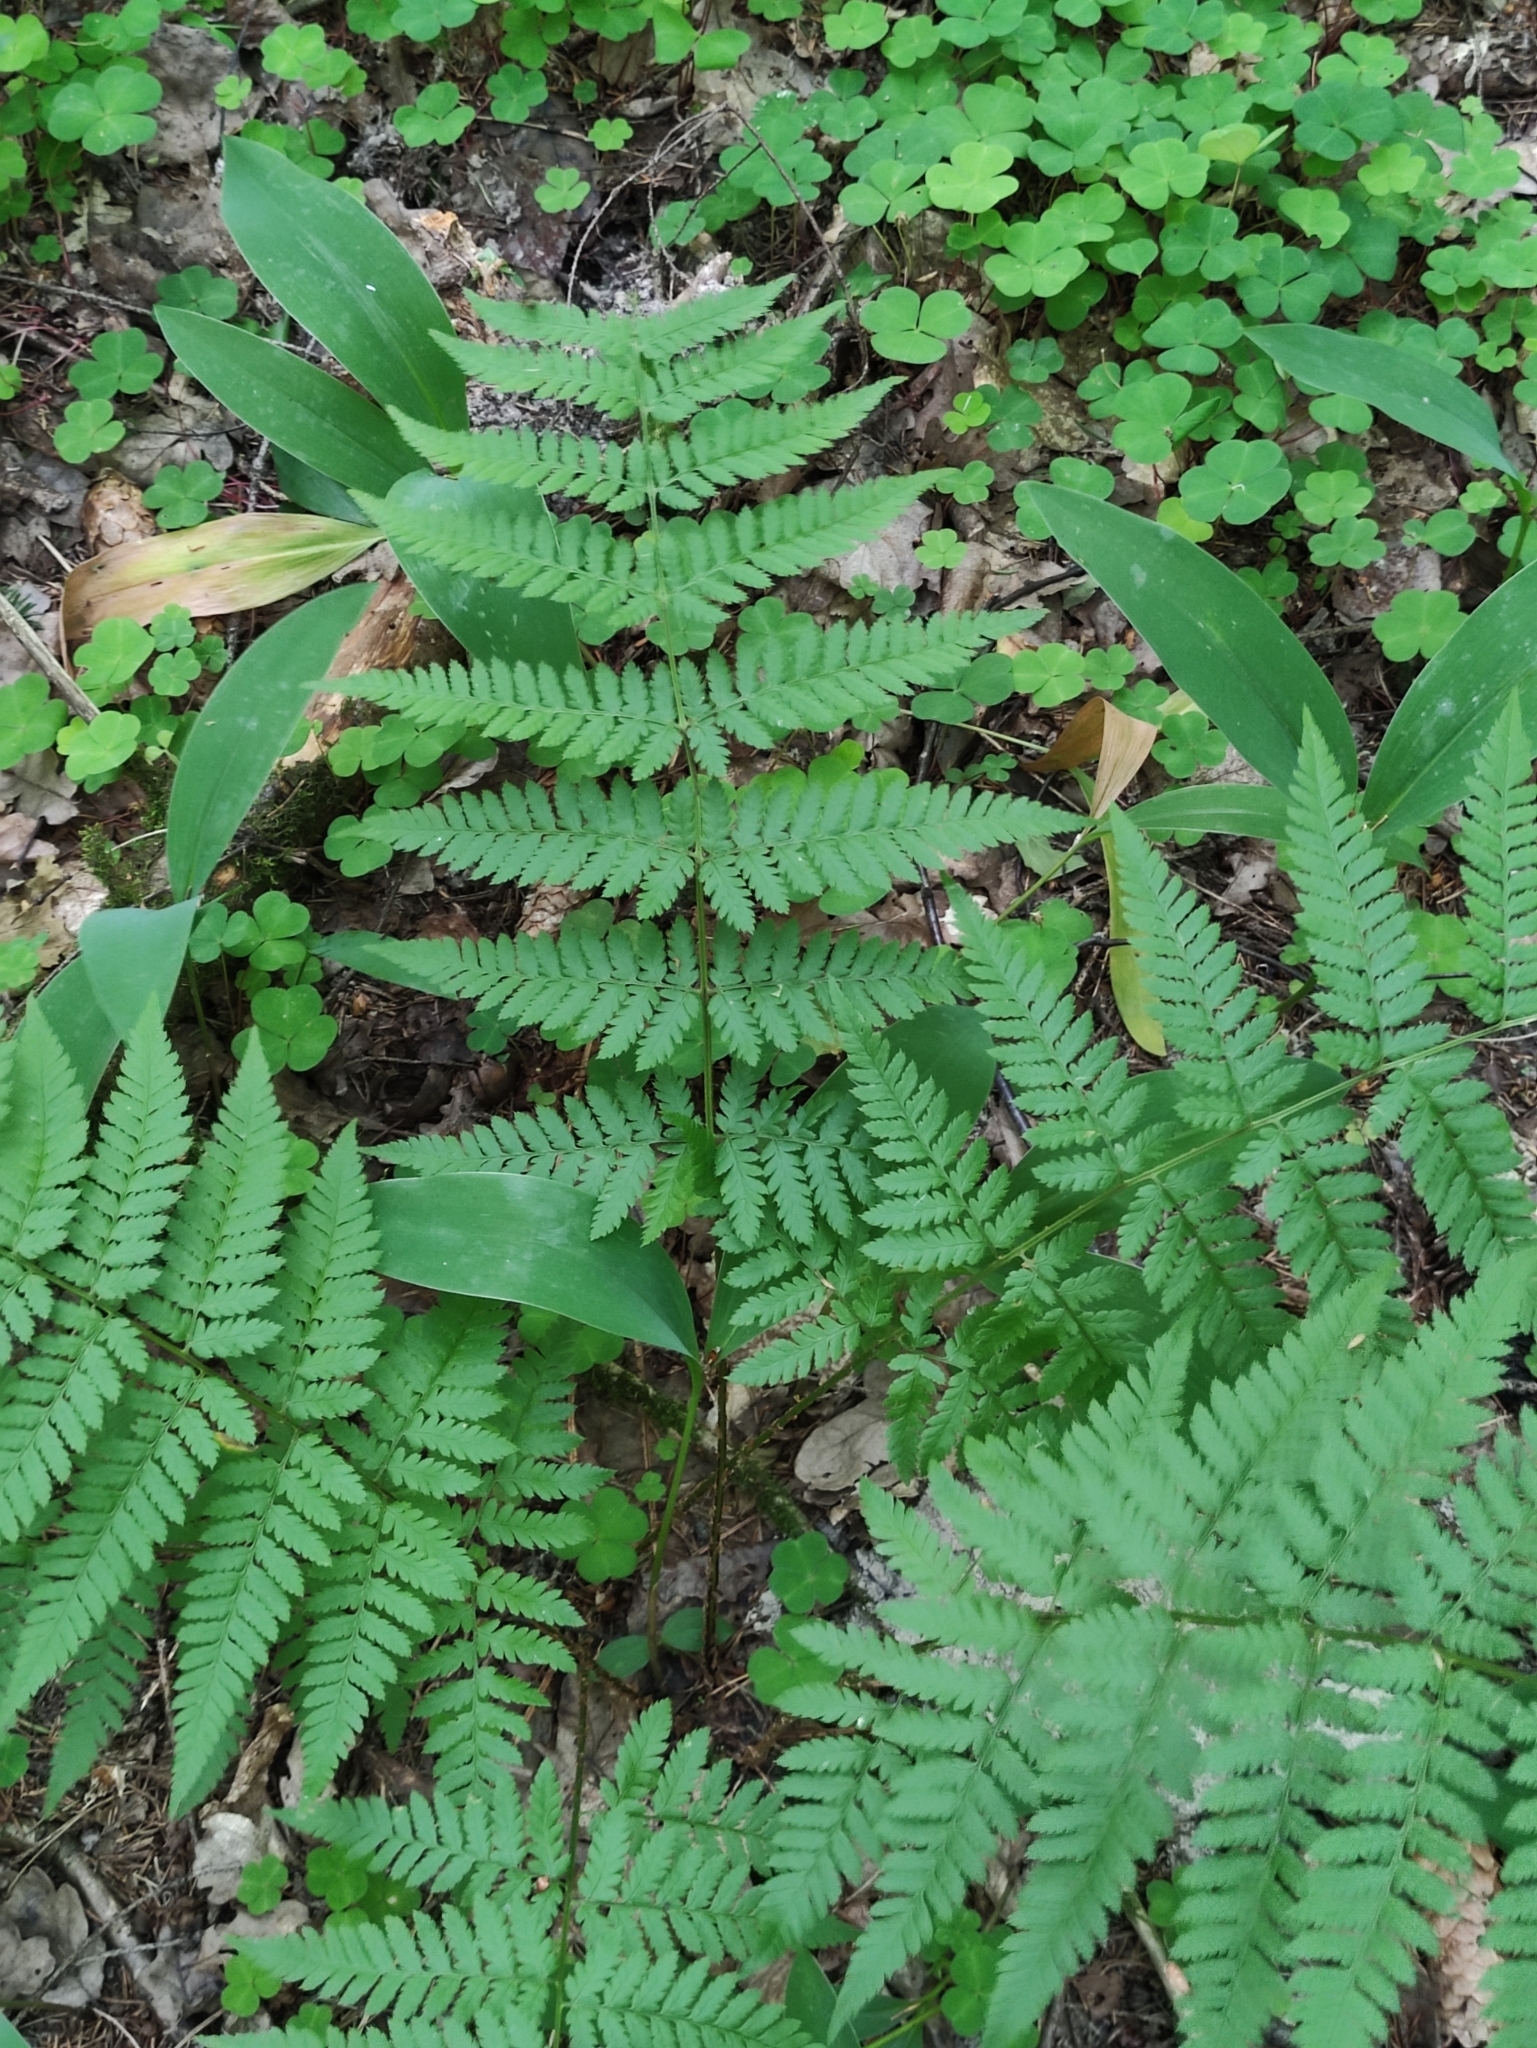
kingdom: Plantae
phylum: Tracheophyta
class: Polypodiopsida
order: Polypodiales
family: Dryopteridaceae
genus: Dryopteris
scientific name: Dryopteris carthusiana
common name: Narrow buckler-fern
